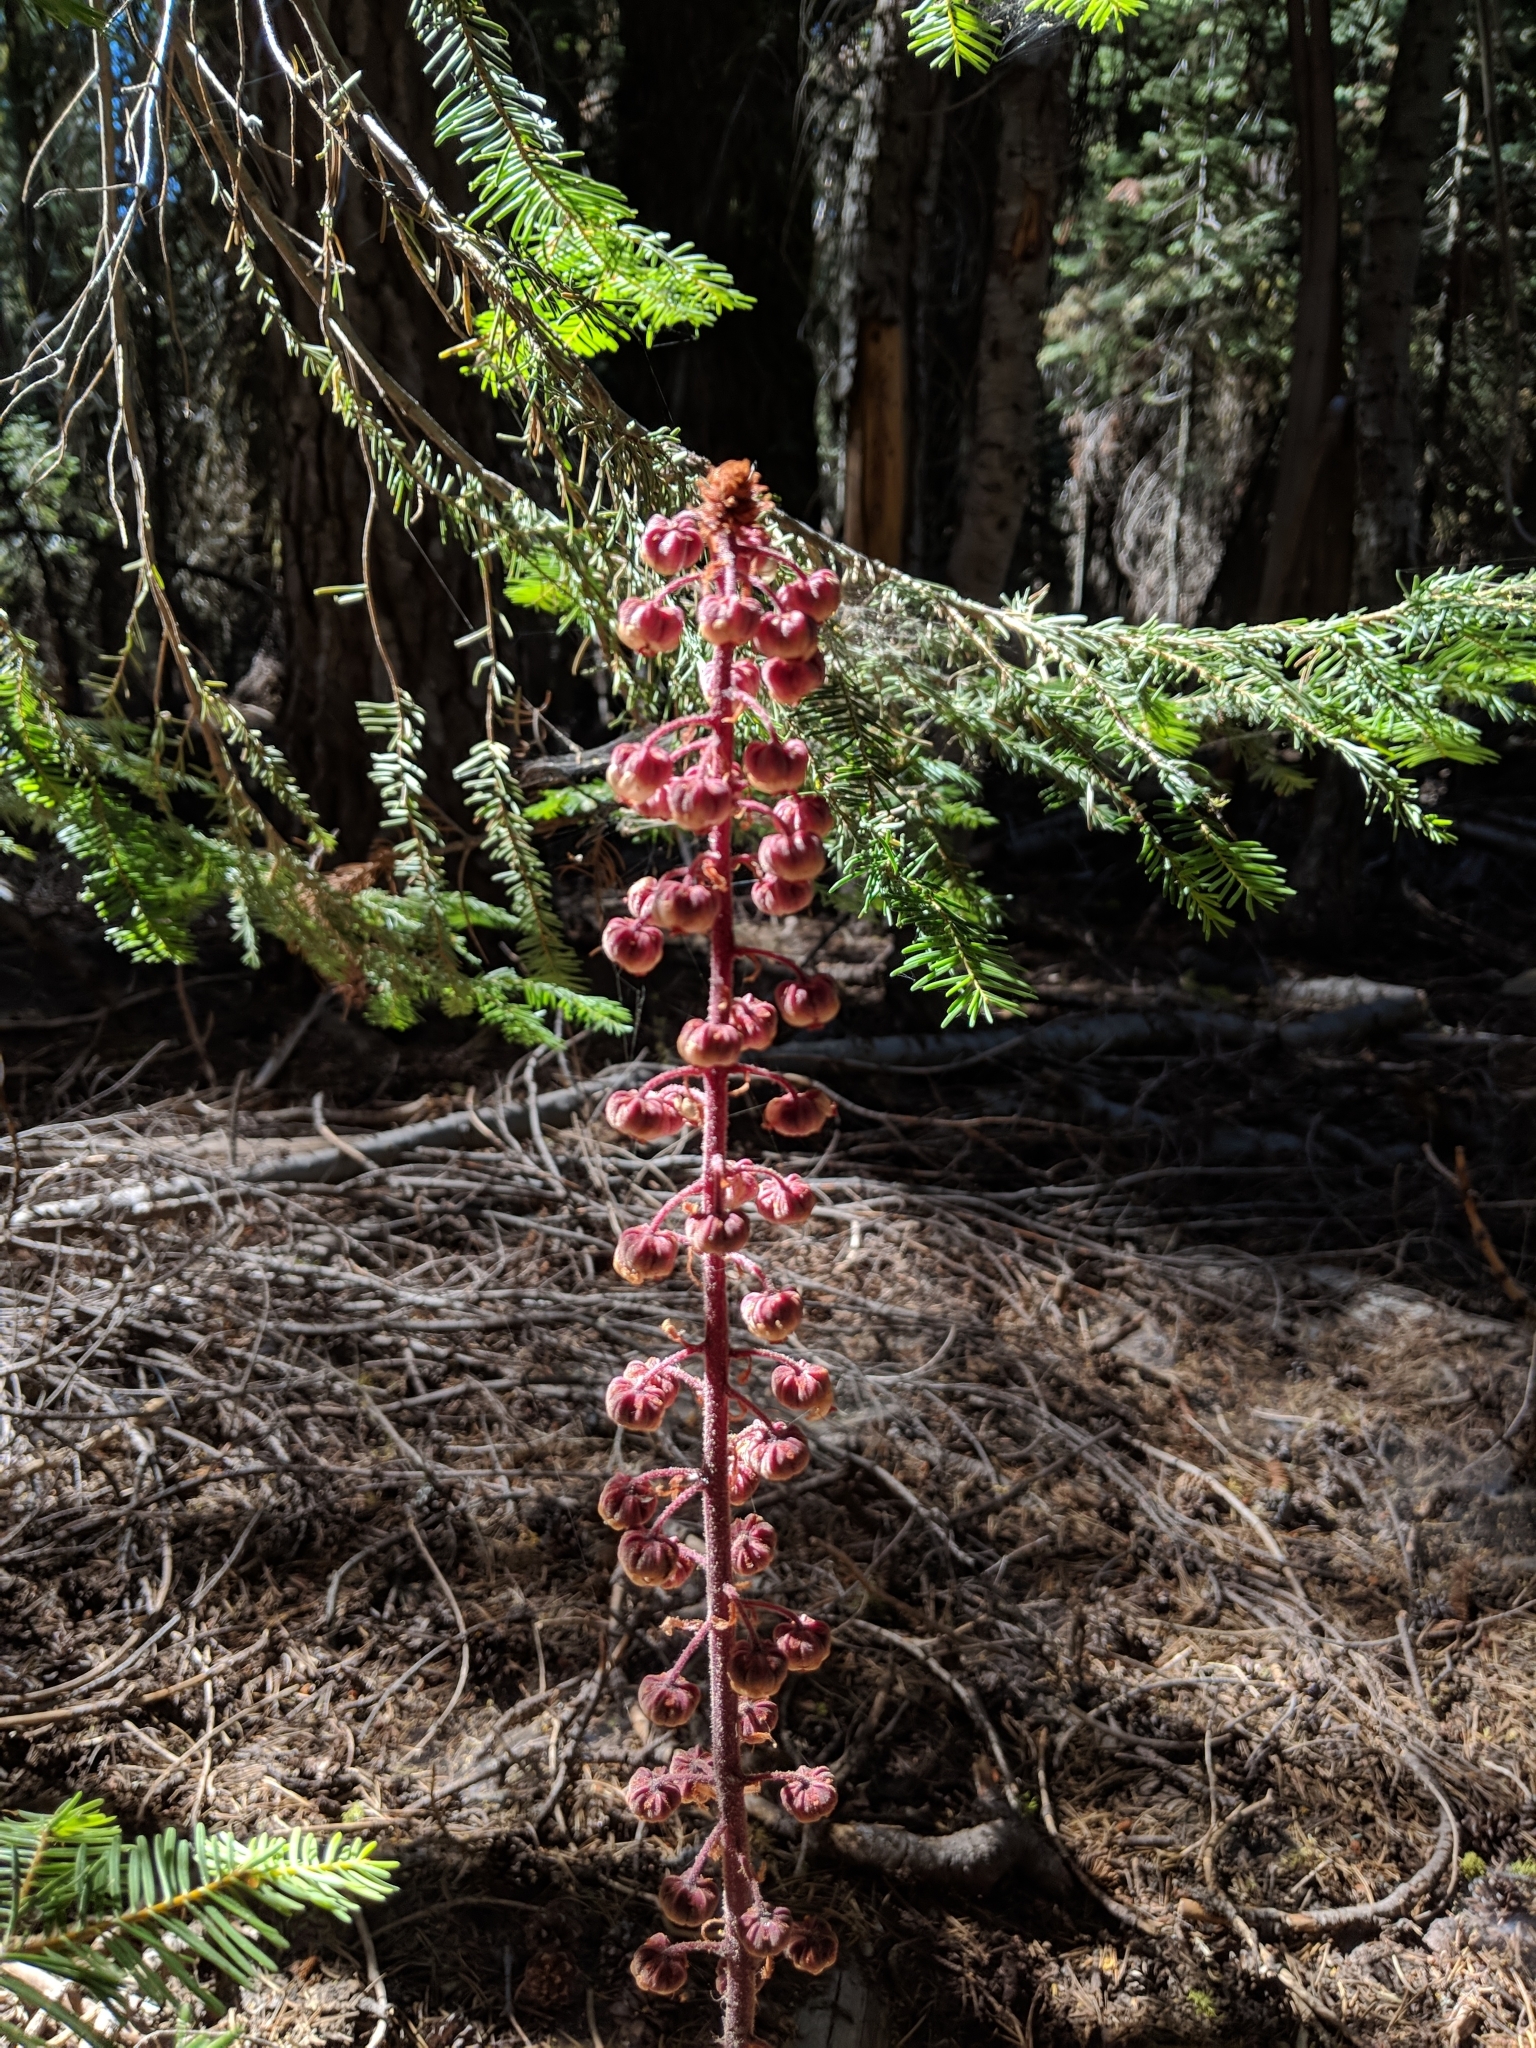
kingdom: Plantae
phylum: Tracheophyta
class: Magnoliopsida
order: Ericales
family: Ericaceae
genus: Pterospora
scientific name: Pterospora andromedea
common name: Giant bird's-nest
